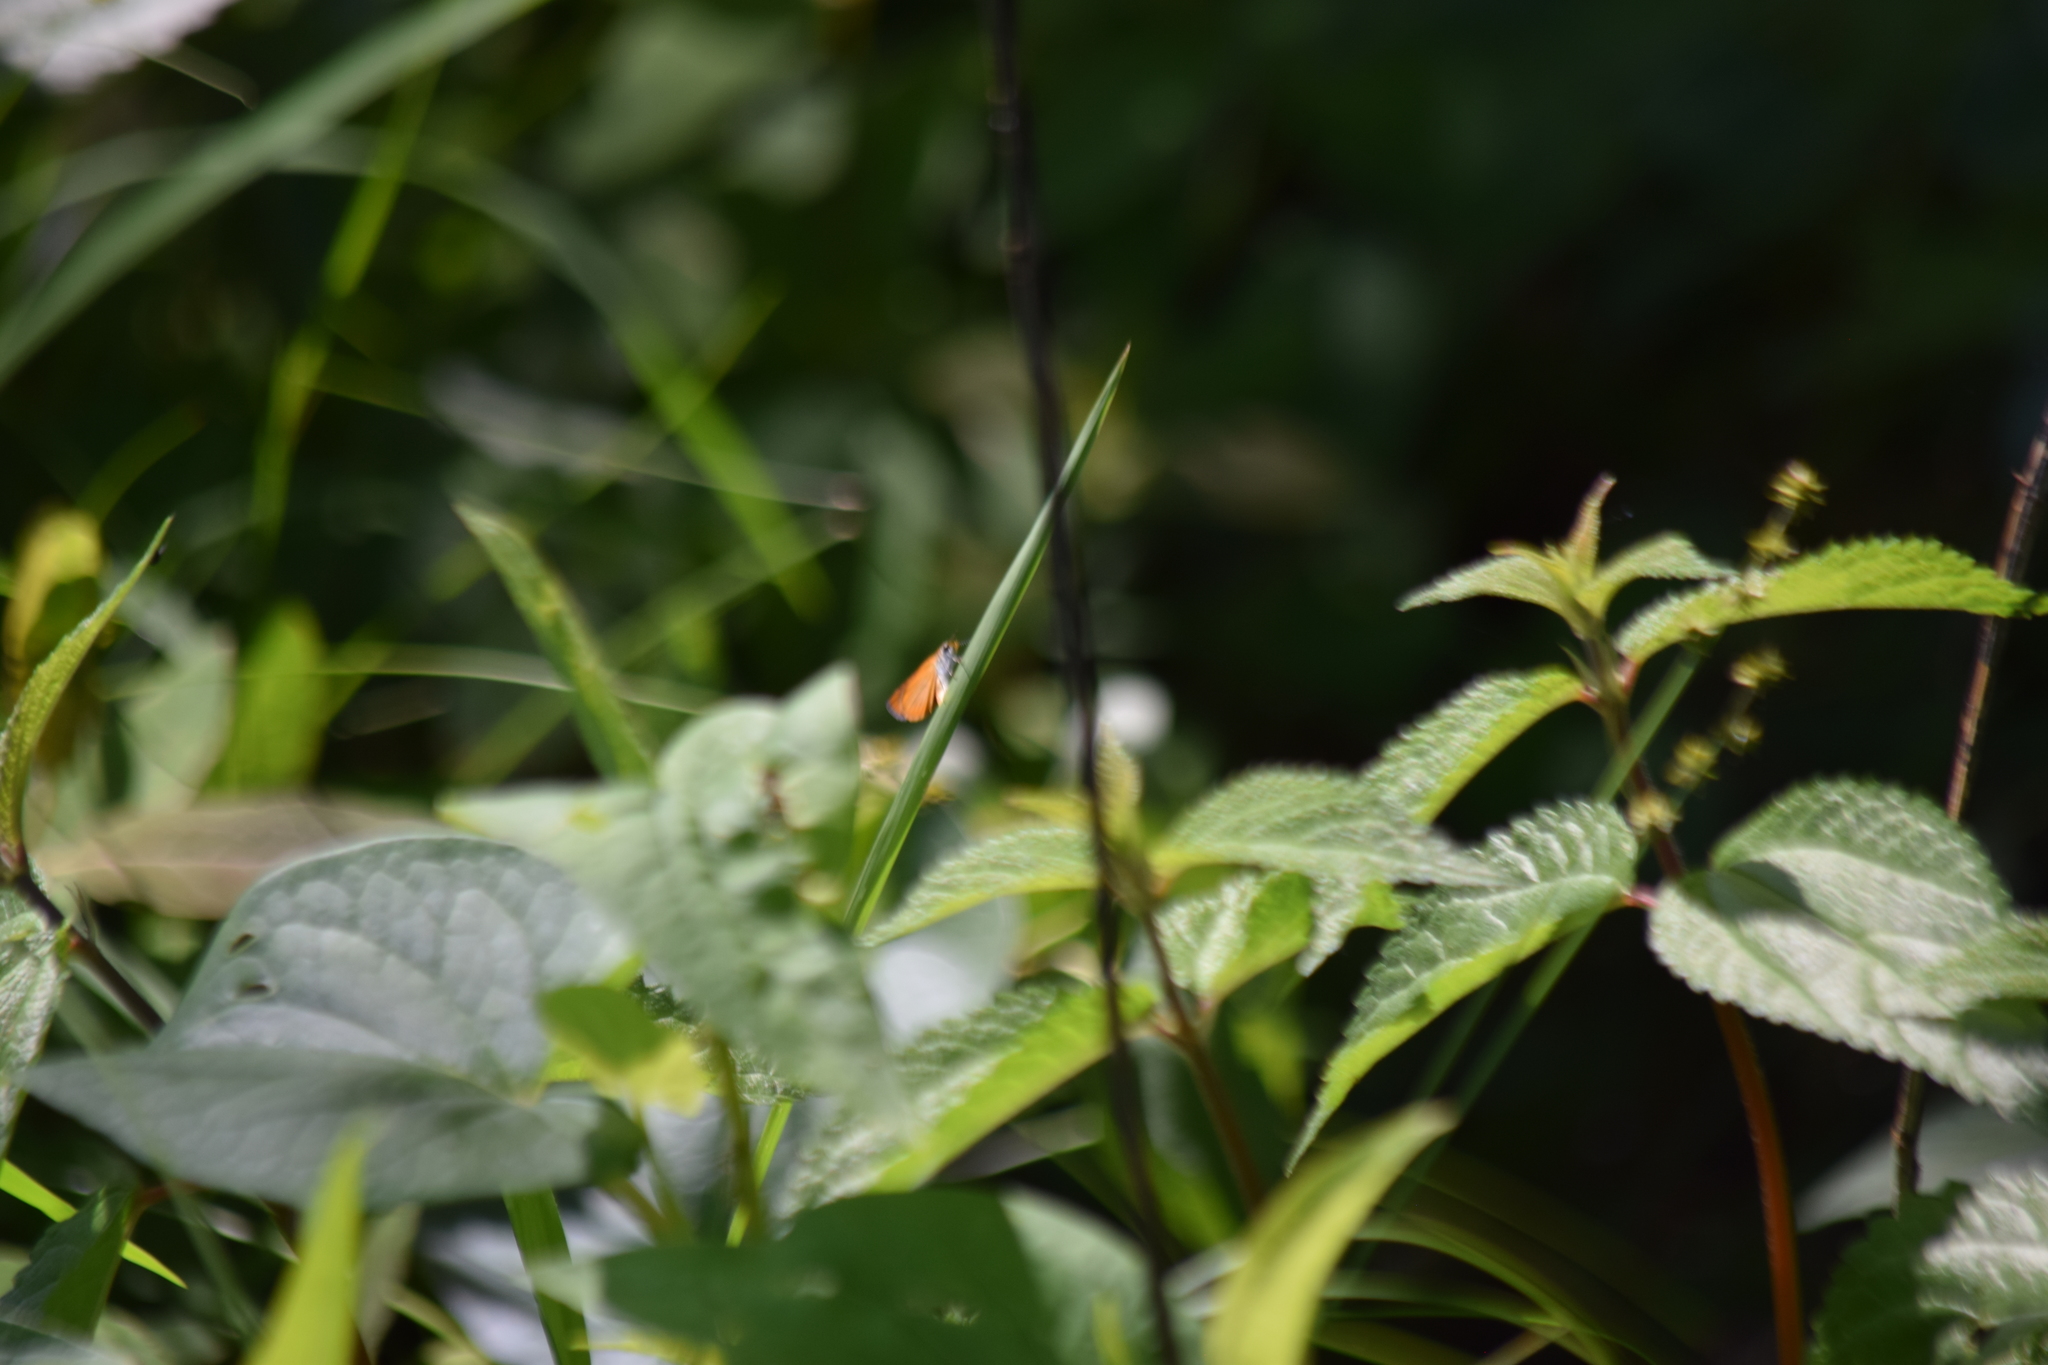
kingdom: Animalia
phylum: Arthropoda
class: Insecta
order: Lepidoptera
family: Hesperiidae
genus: Ancyloxypha
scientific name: Ancyloxypha numitor
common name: Least skipper
